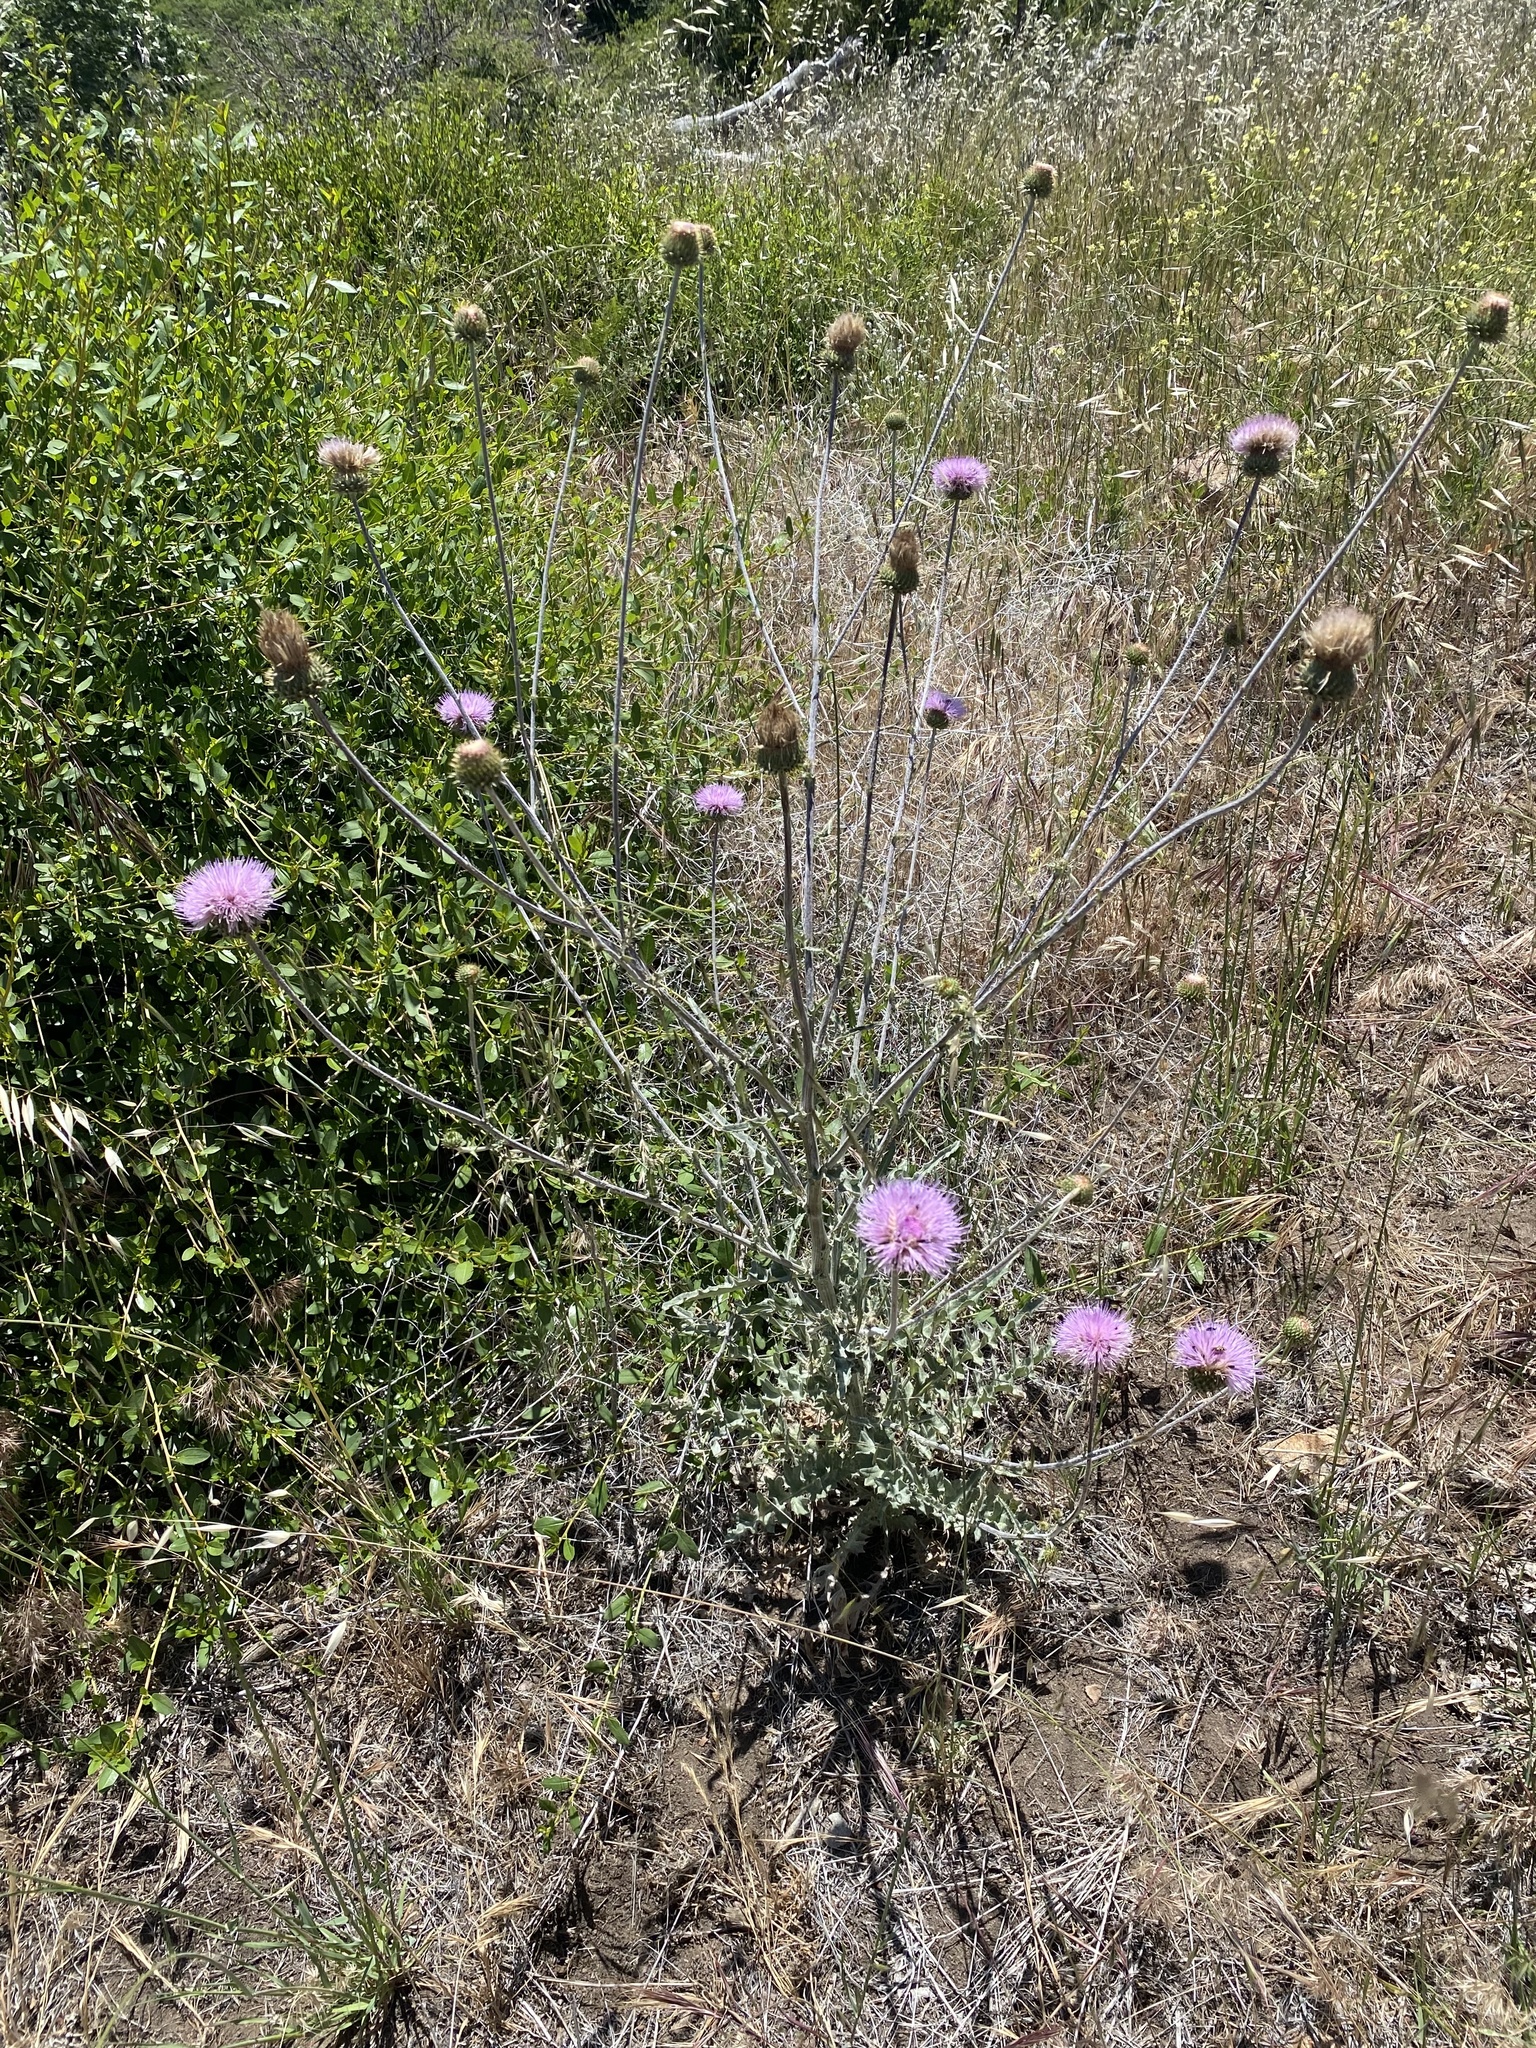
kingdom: Plantae
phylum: Tracheophyta
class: Magnoliopsida
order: Asterales
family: Asteraceae
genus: Cirsium
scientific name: Cirsium occidentale
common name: Western thistle
